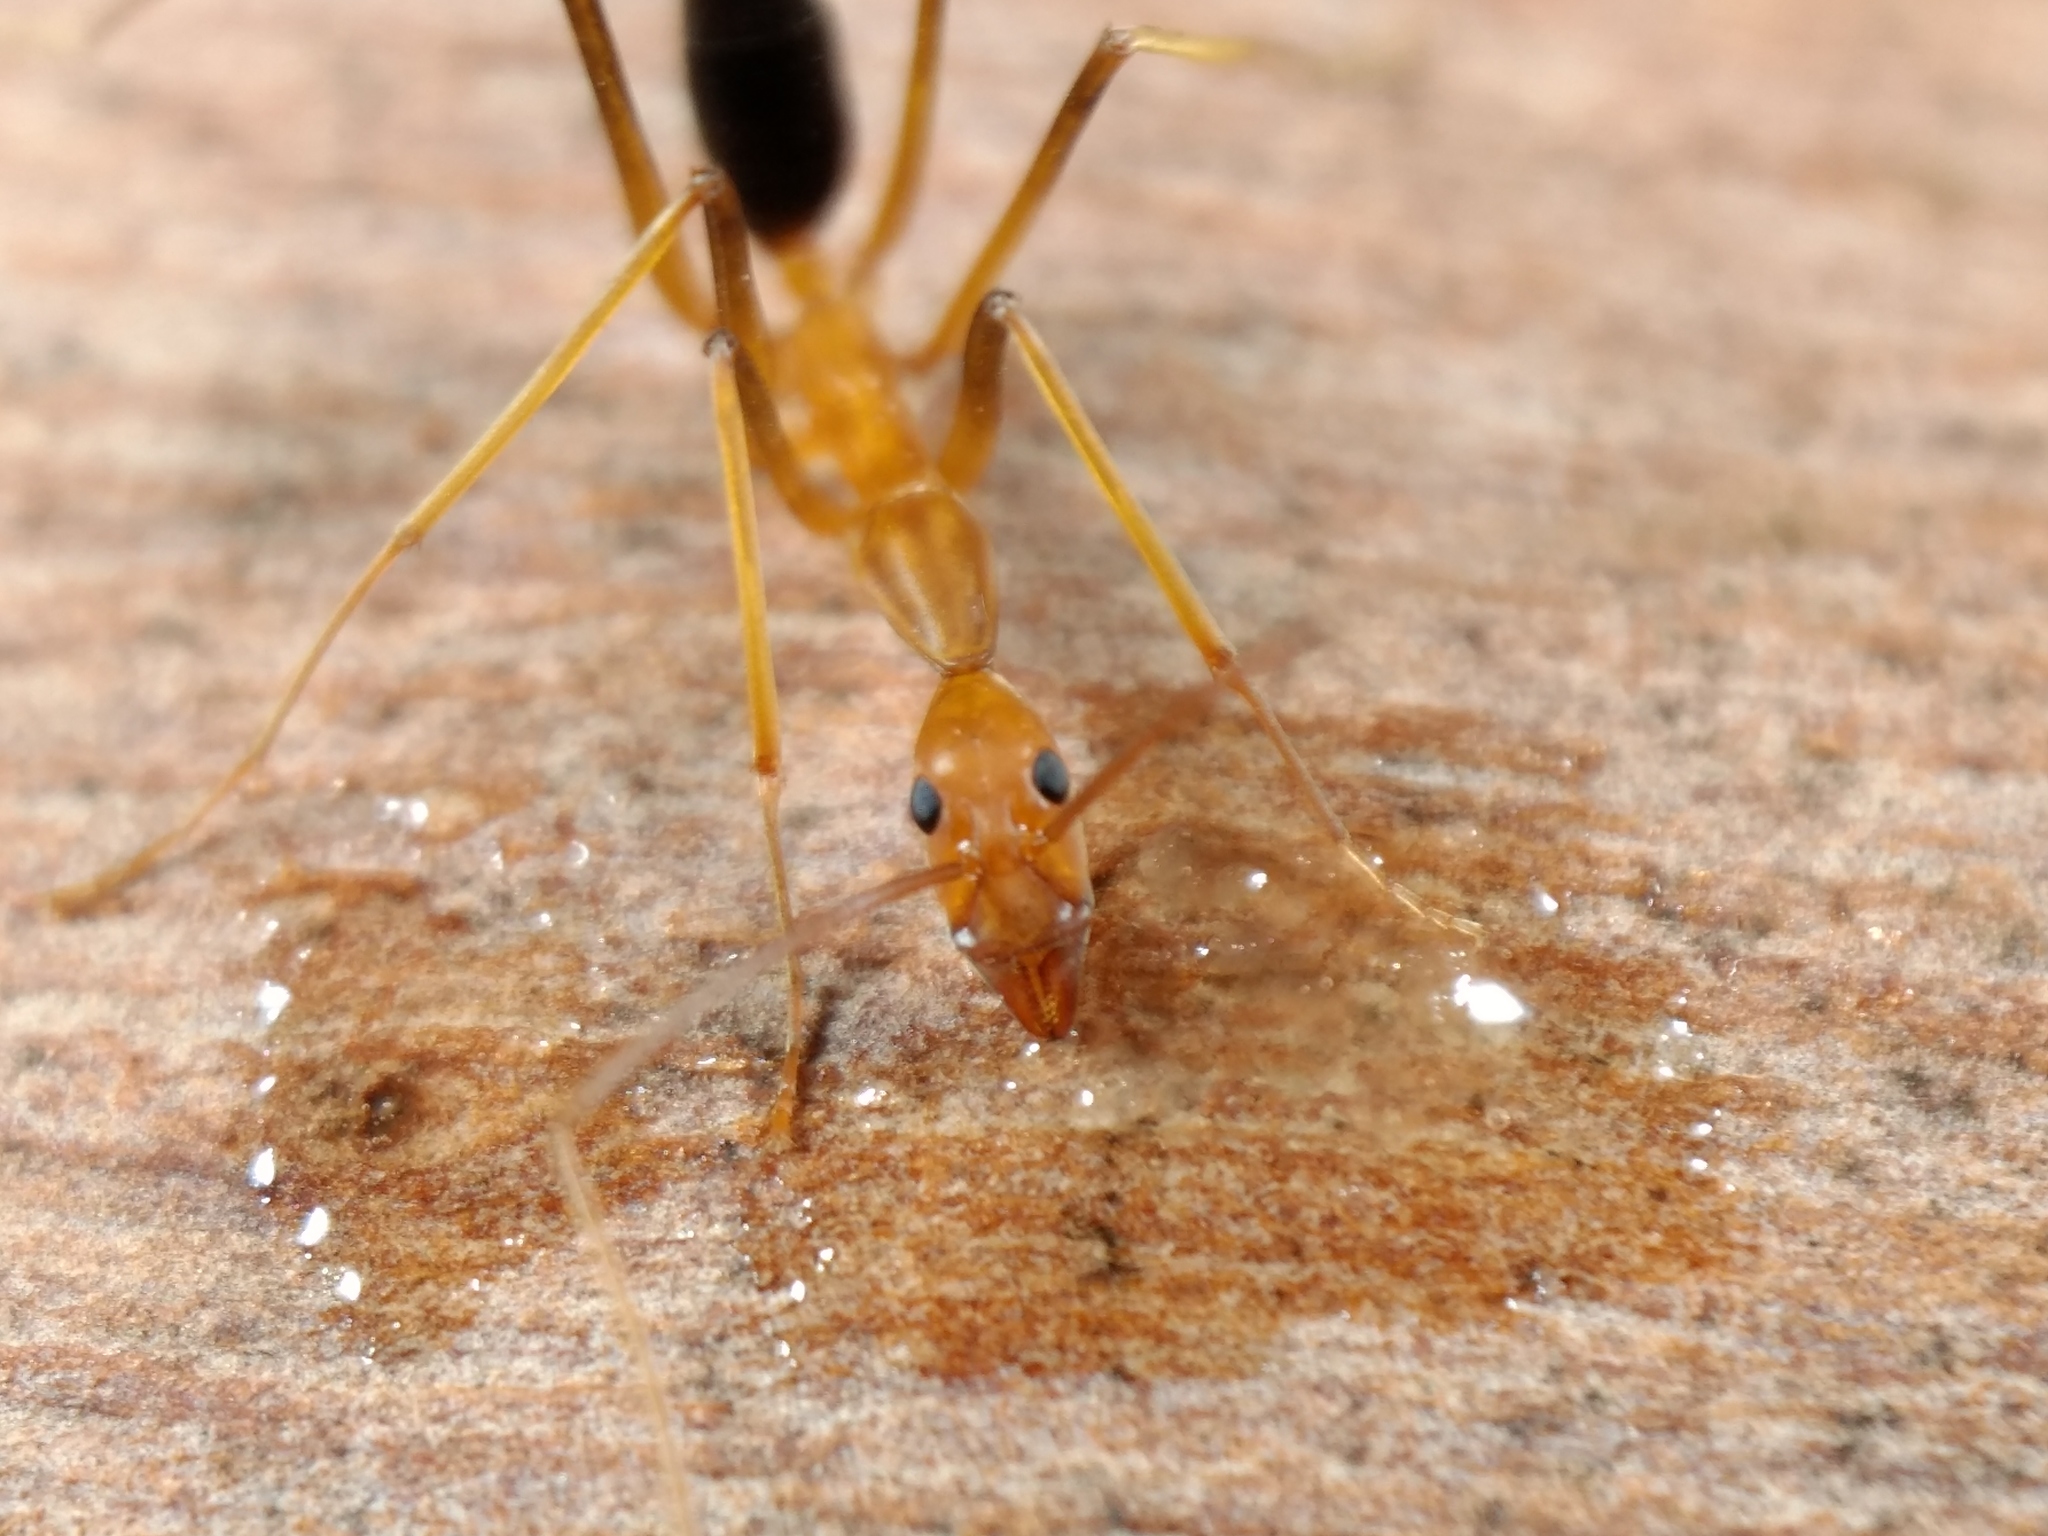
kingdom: Animalia
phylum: Arthropoda
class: Insecta
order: Hymenoptera
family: Formicidae
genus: Leptomyrmex
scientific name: Leptomyrmex rufipes
